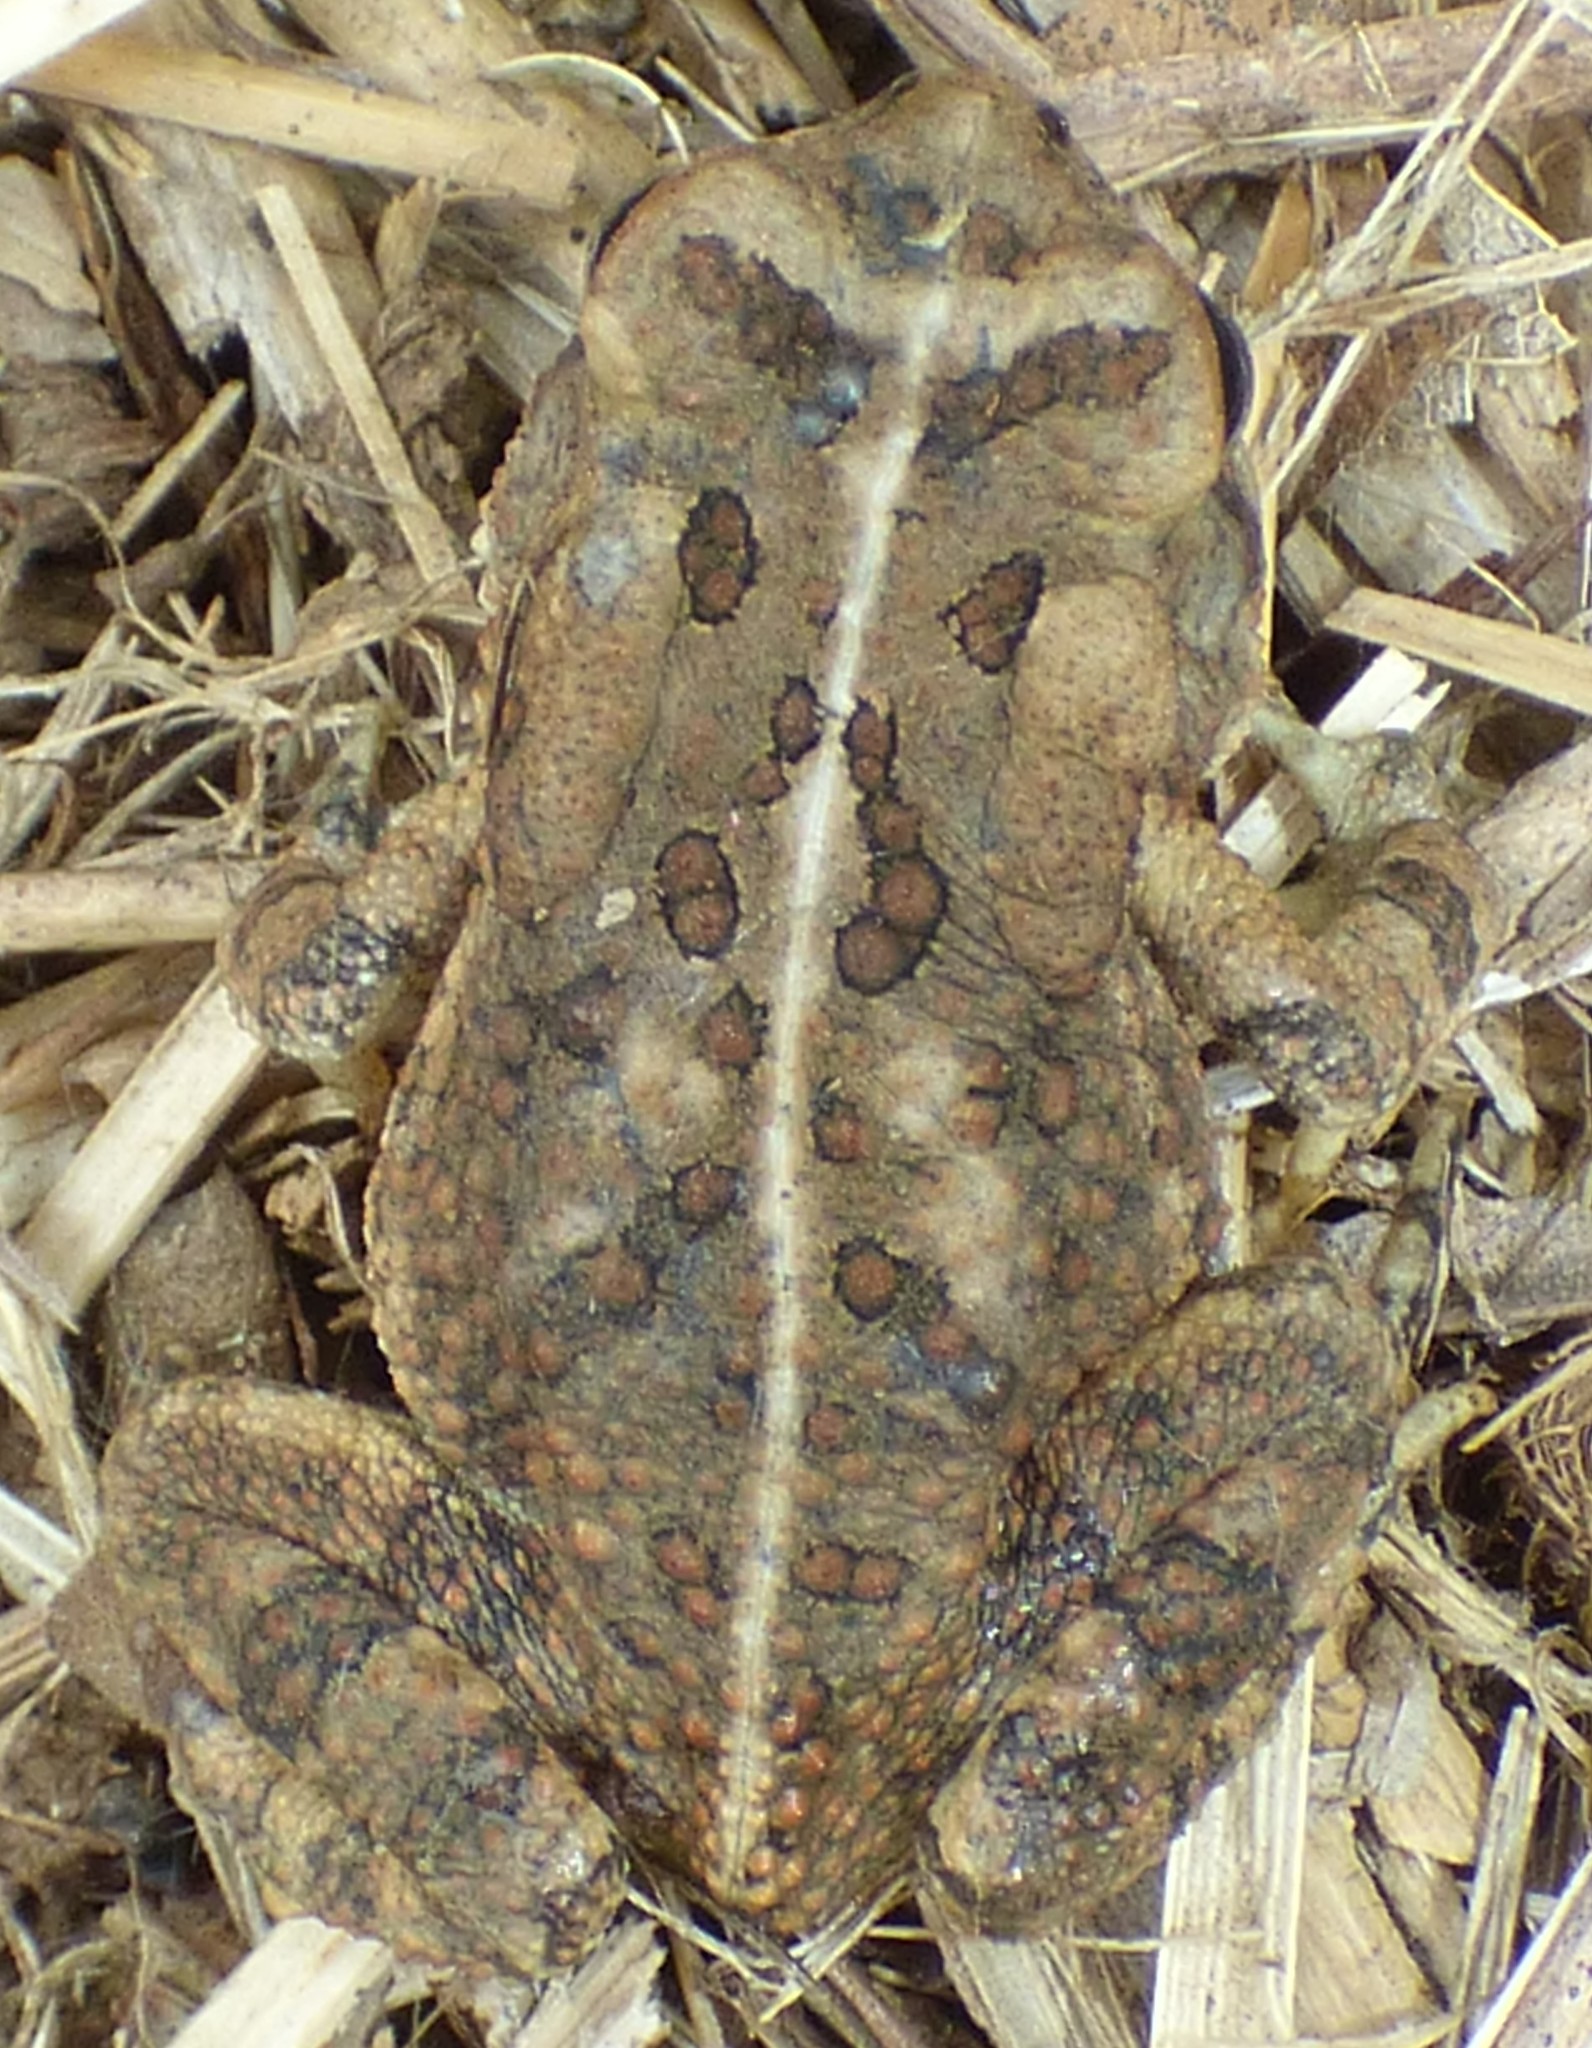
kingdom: Animalia
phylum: Chordata
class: Amphibia
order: Anura
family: Bufonidae
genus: Anaxyrus
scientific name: Anaxyrus fowleri
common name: Fowler's toad
